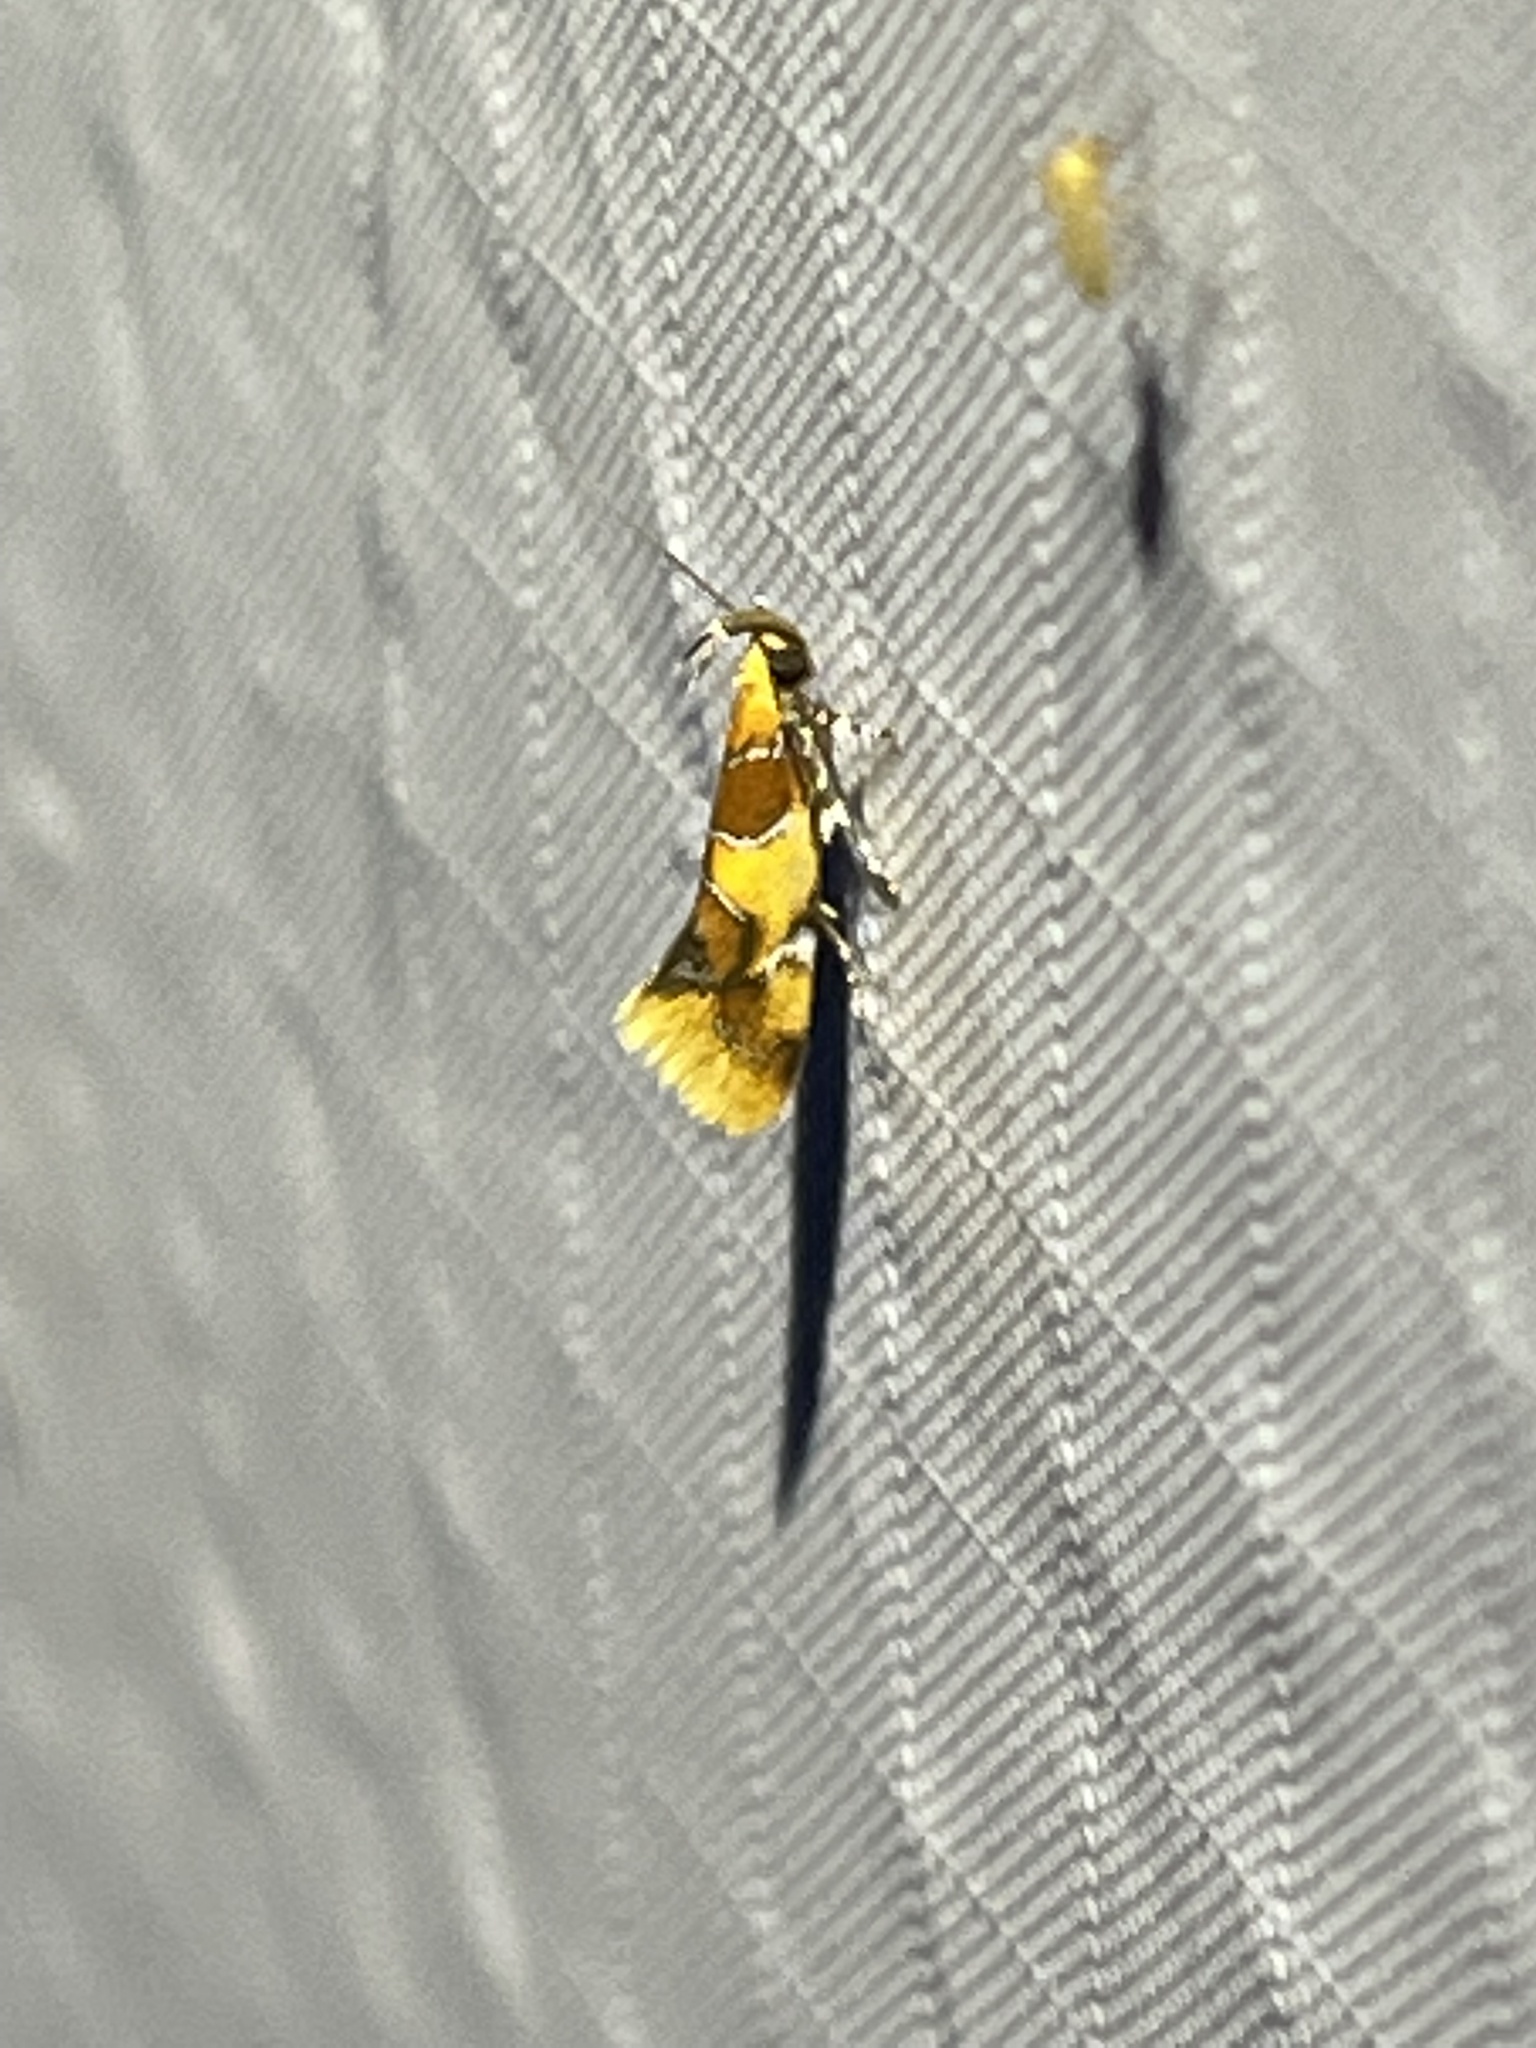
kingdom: Animalia
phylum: Arthropoda
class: Insecta
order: Lepidoptera
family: Oecophoridae
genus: Callima
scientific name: Callima argenticinctella
